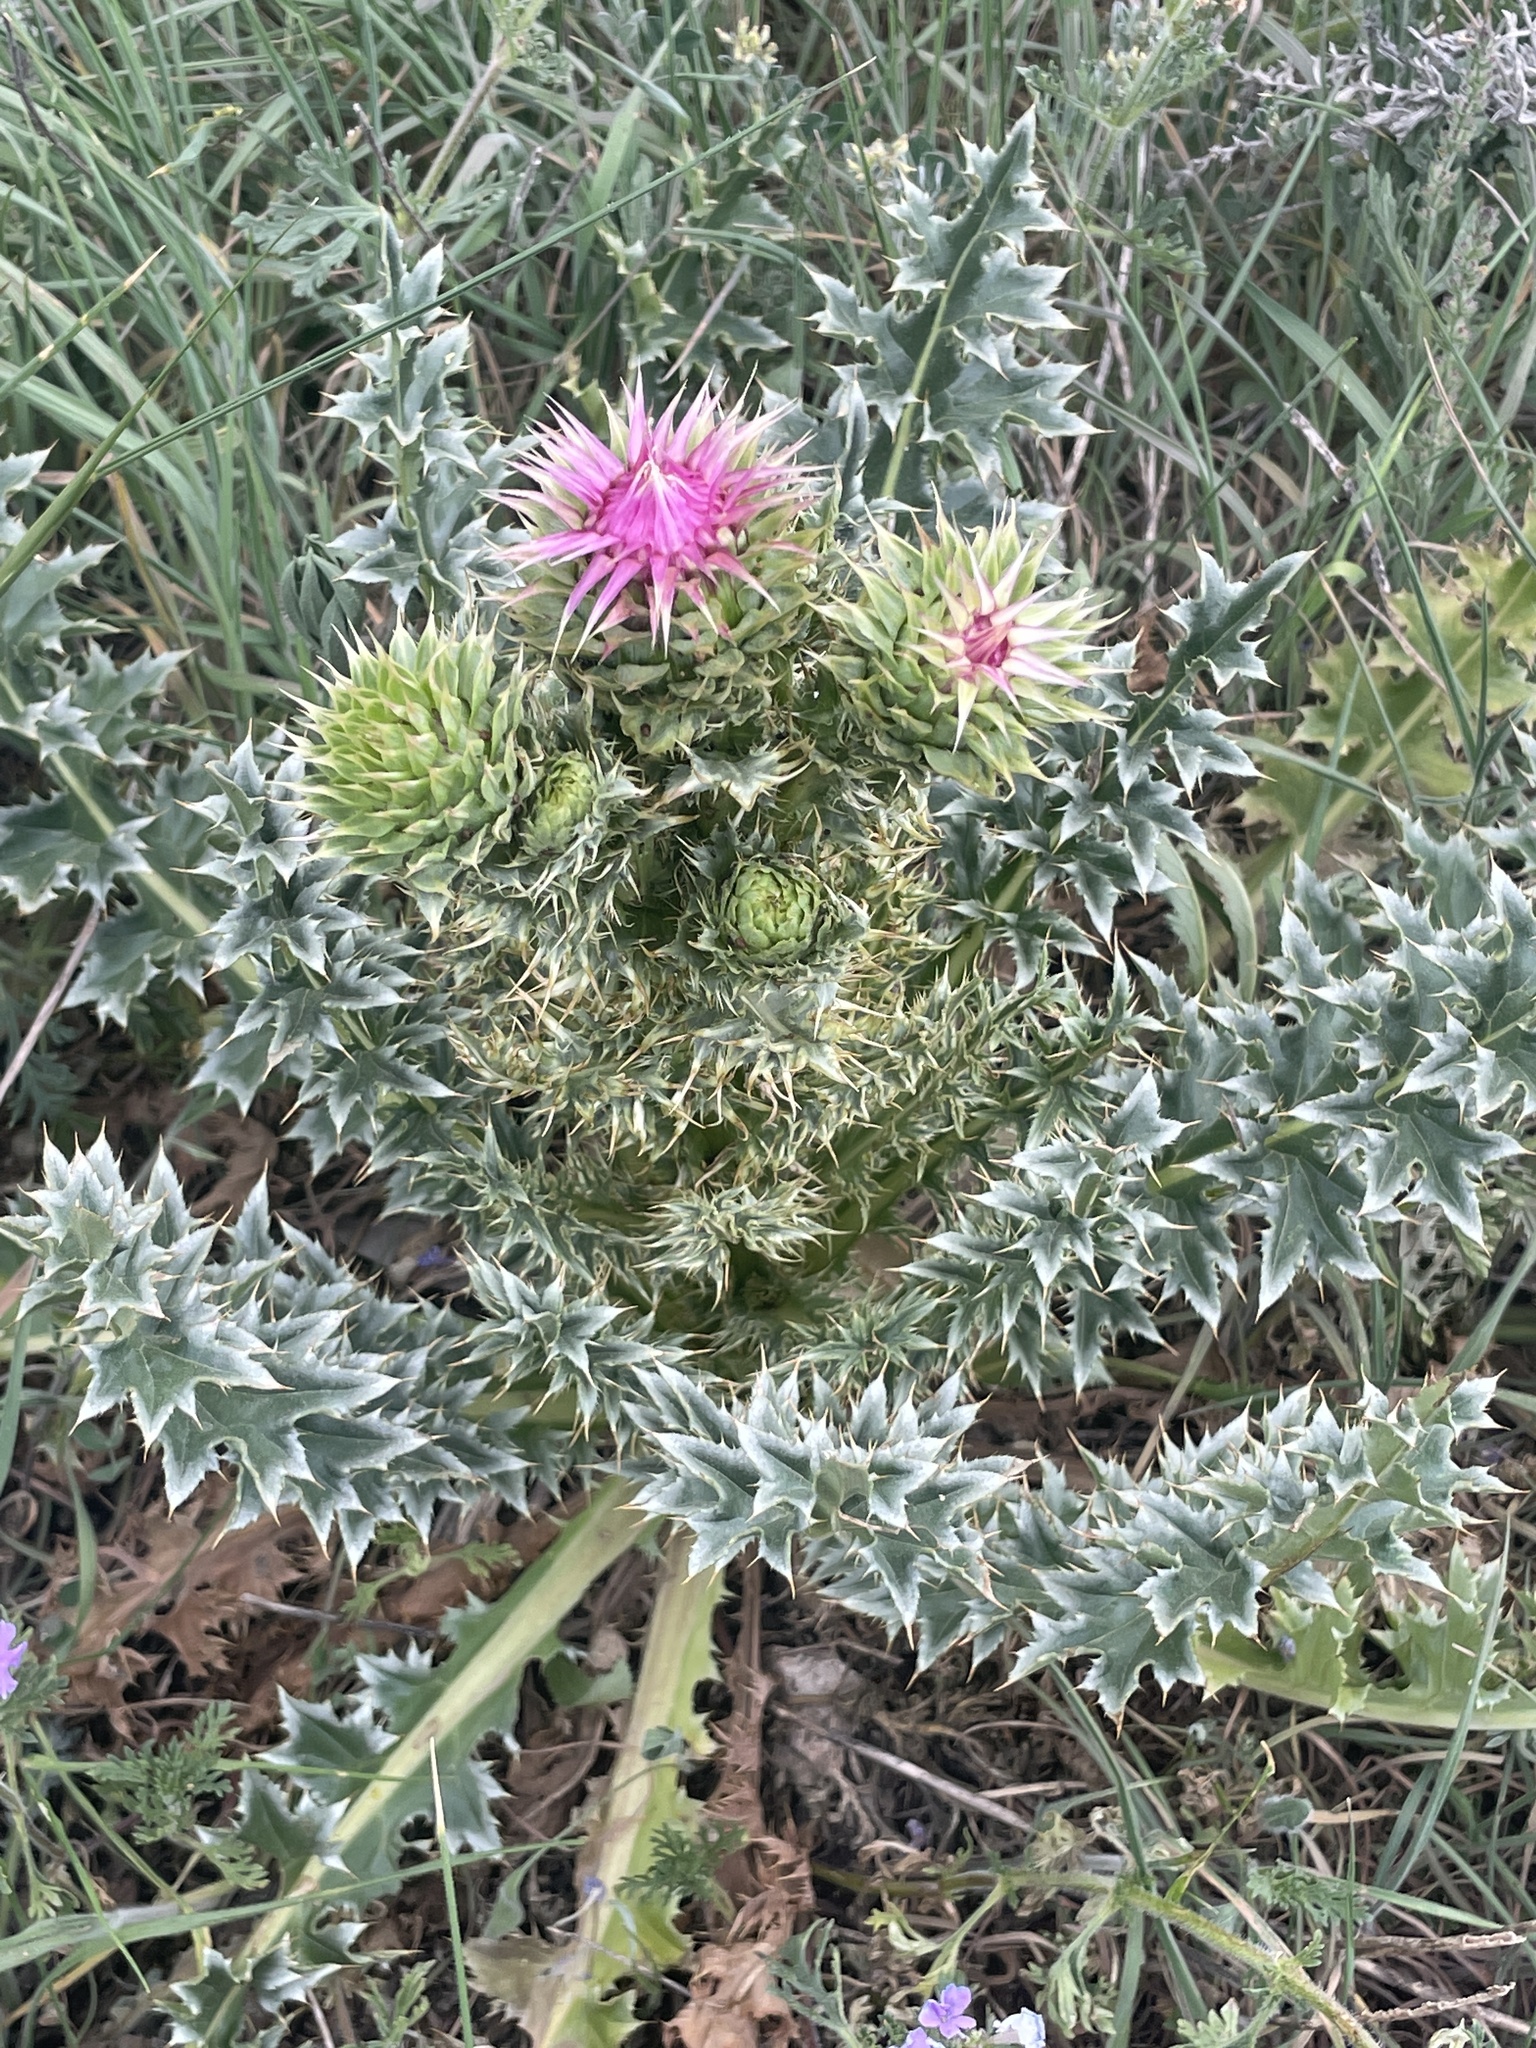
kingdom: Plantae
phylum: Tracheophyta
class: Magnoliopsida
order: Asterales
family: Asteraceae
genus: Carduus
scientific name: Carduus nutans
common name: Musk thistle
